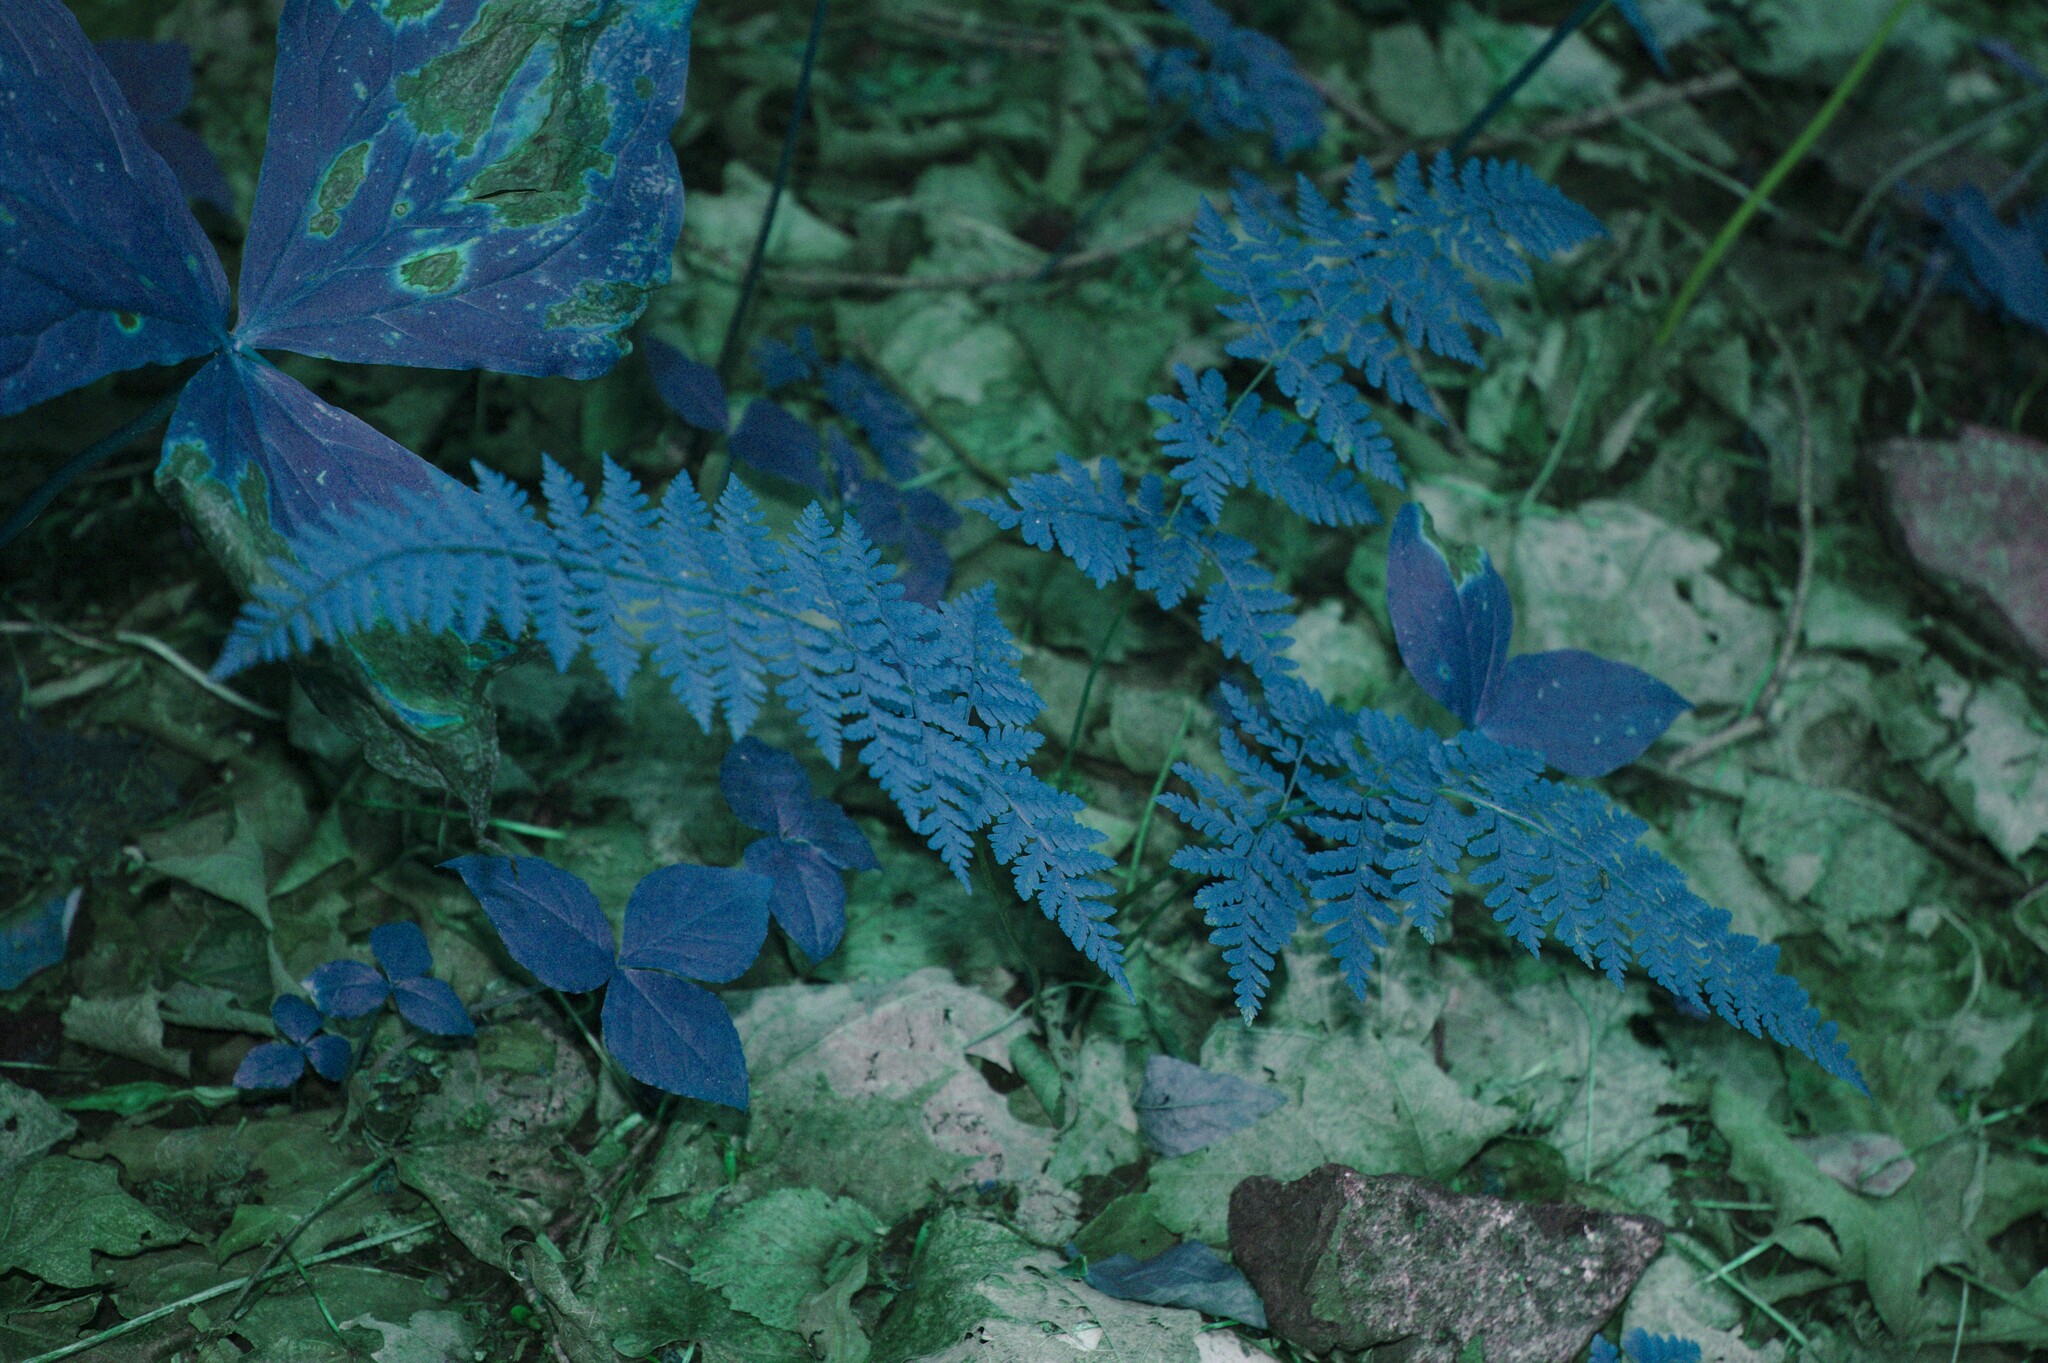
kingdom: Plantae
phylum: Tracheophyta
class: Liliopsida
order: Alismatales
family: Araceae
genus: Arisaema
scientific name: Arisaema
